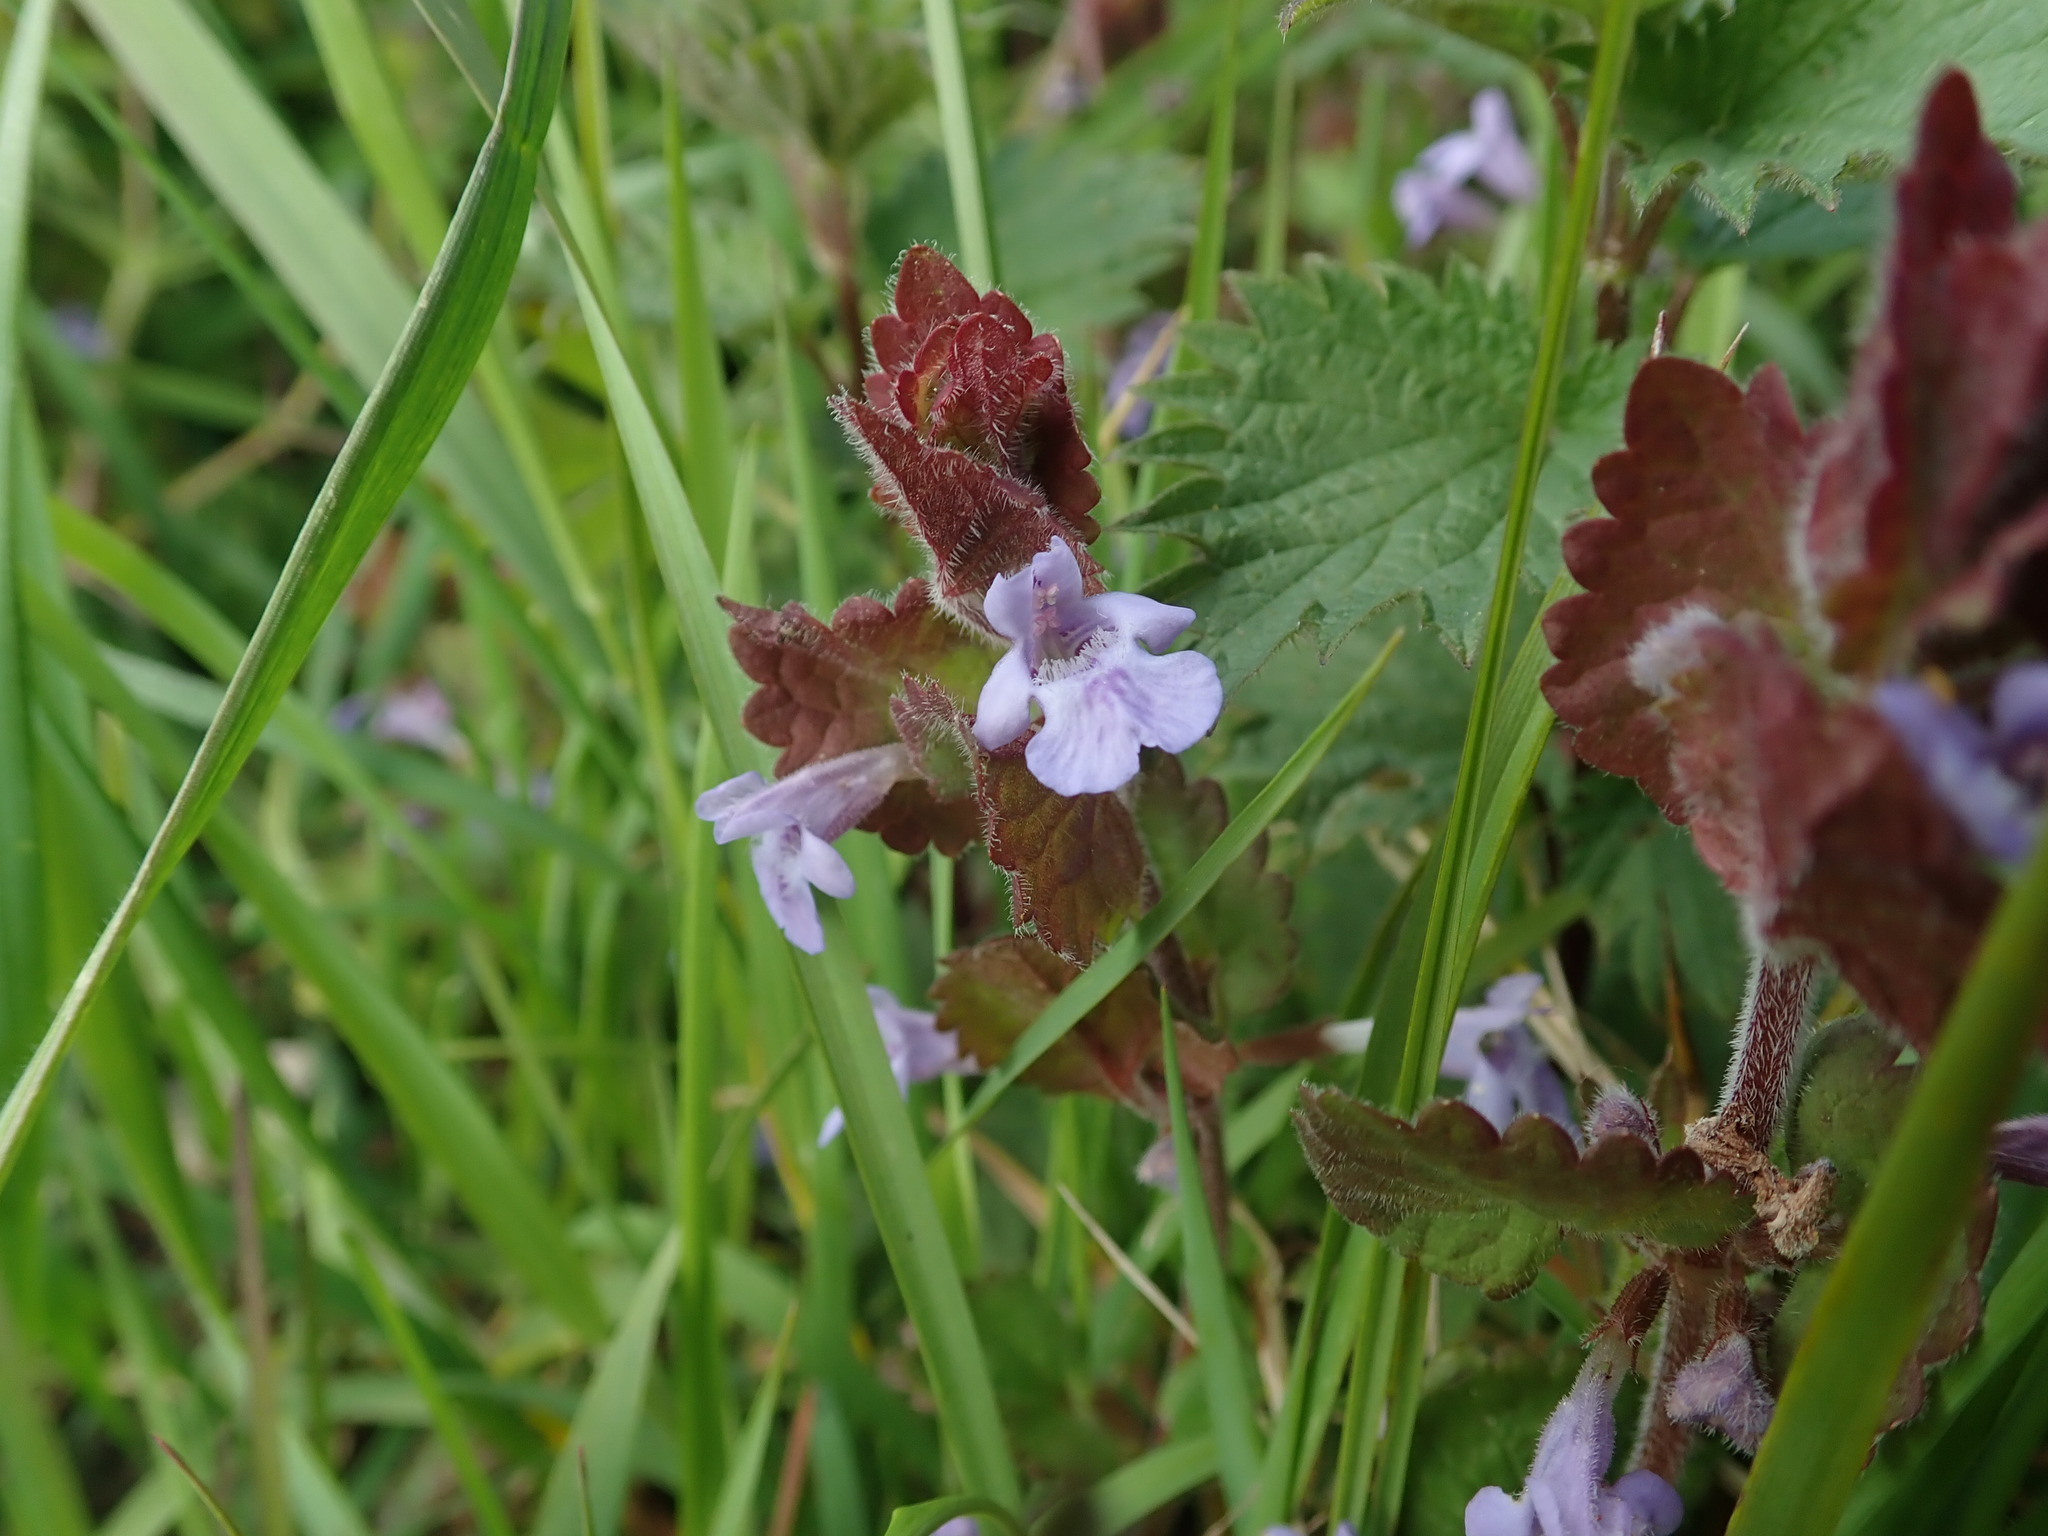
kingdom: Plantae
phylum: Tracheophyta
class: Magnoliopsida
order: Lamiales
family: Lamiaceae
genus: Glechoma
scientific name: Glechoma hederacea
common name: Ground ivy
